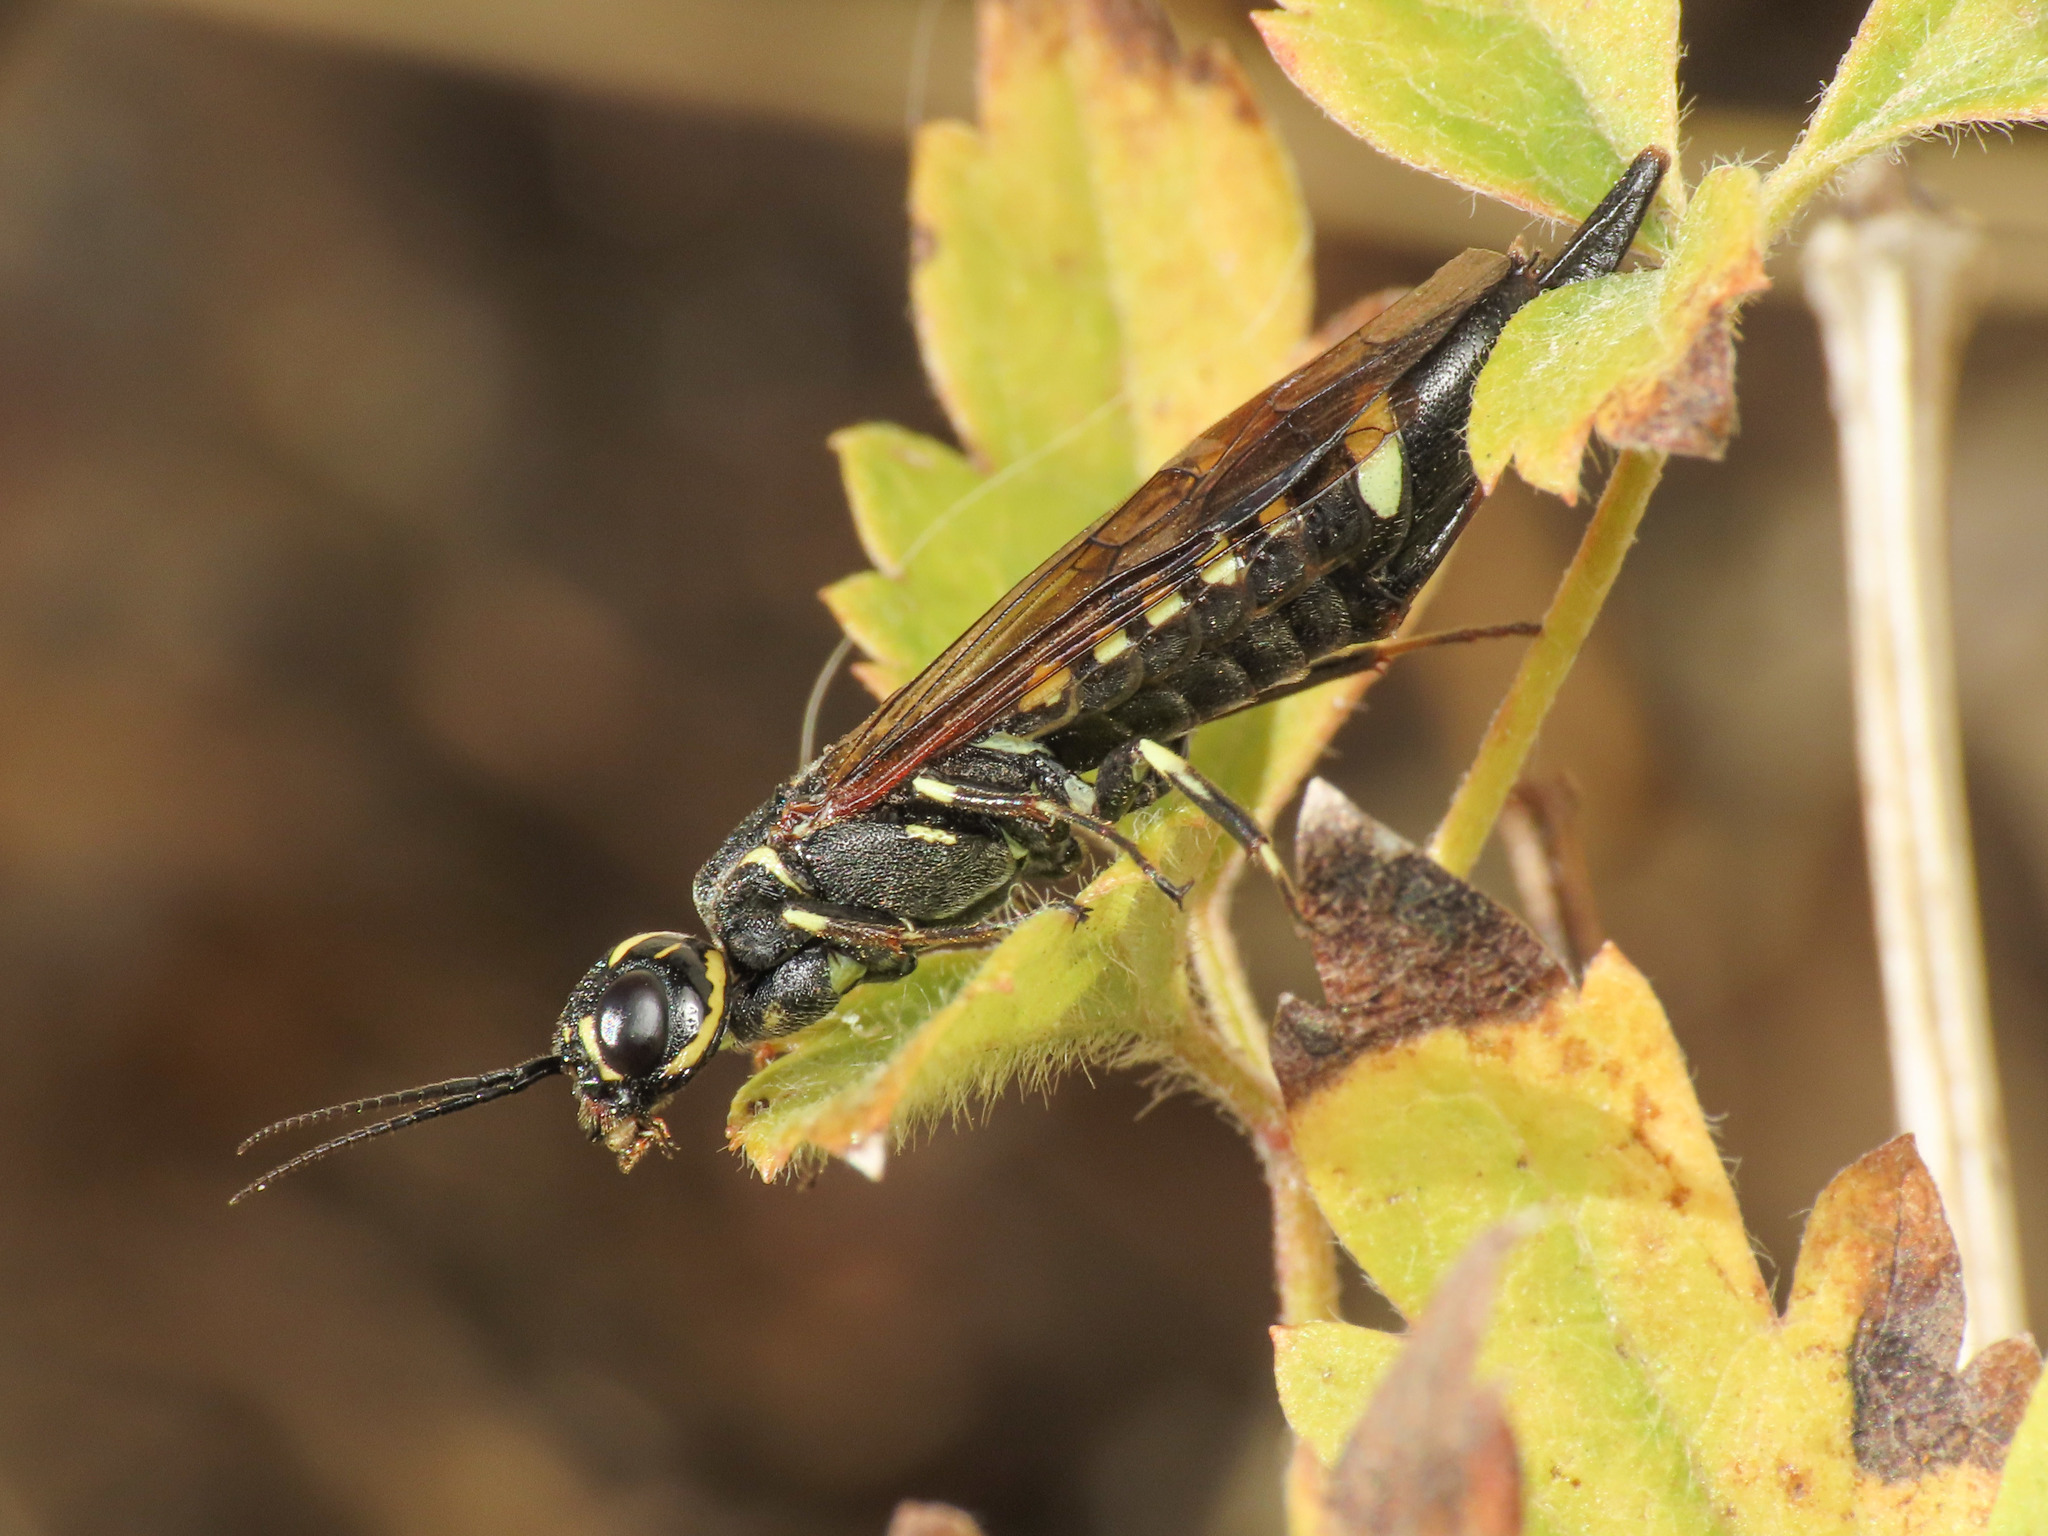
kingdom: Animalia
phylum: Arthropoda
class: Insecta
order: Hymenoptera
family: Xiphydriidae
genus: Xiphydria
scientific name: Xiphydria longicollis
